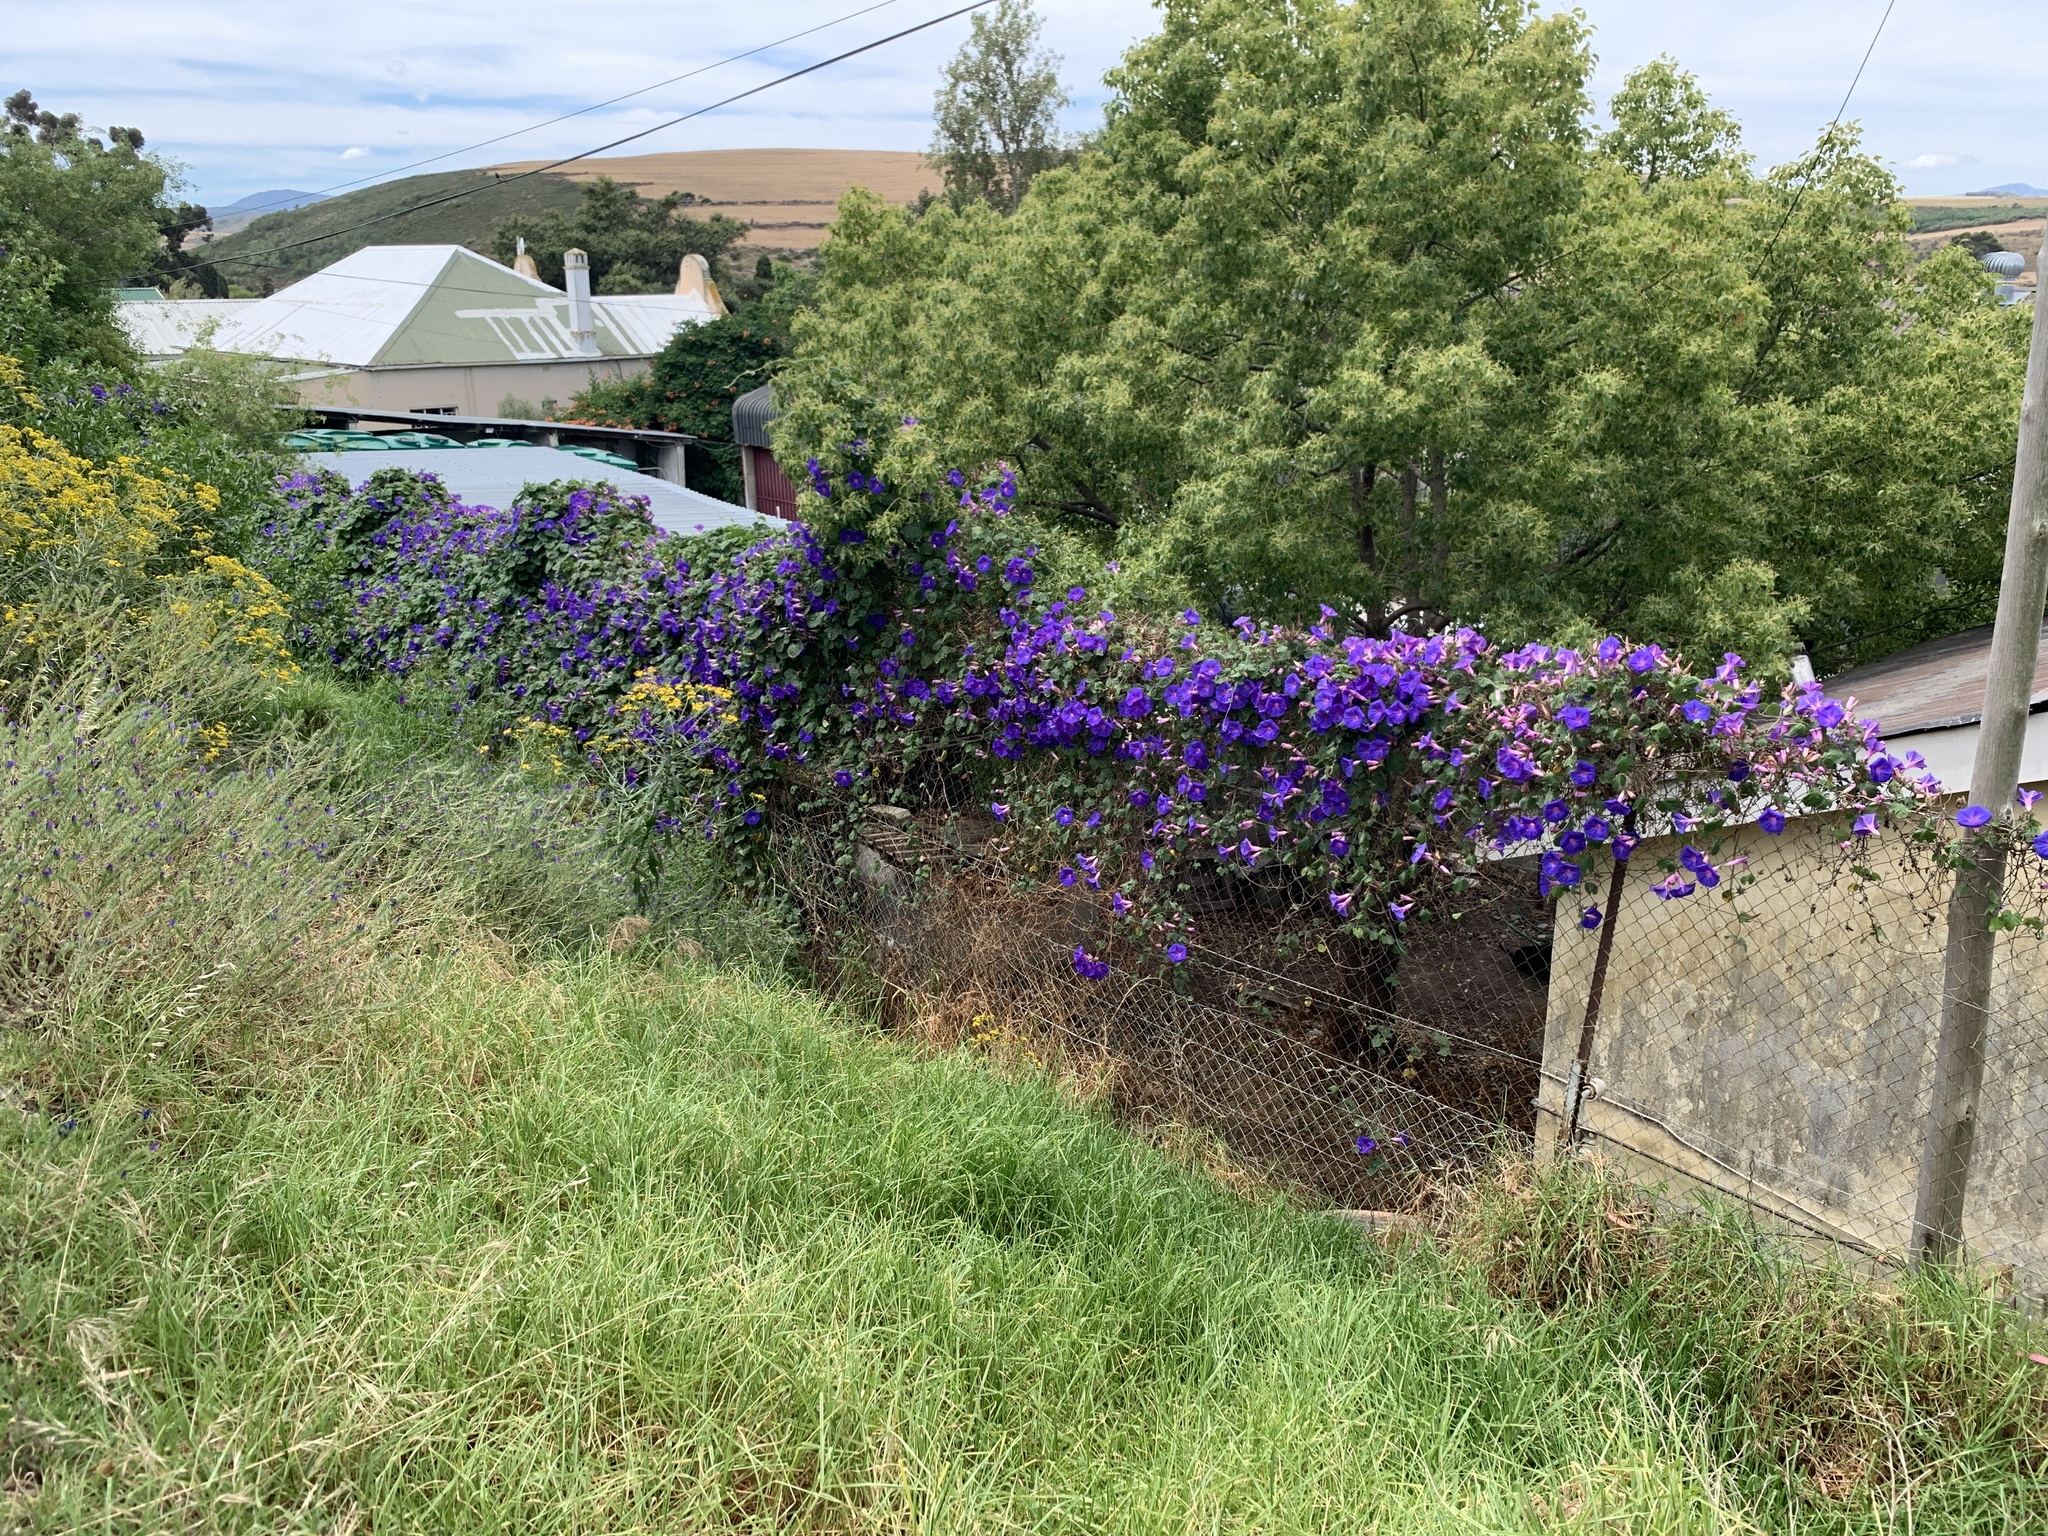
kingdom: Plantae
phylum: Tracheophyta
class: Magnoliopsida
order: Solanales
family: Convolvulaceae
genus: Ipomoea
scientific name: Ipomoea indica
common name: Blue dawnflower
